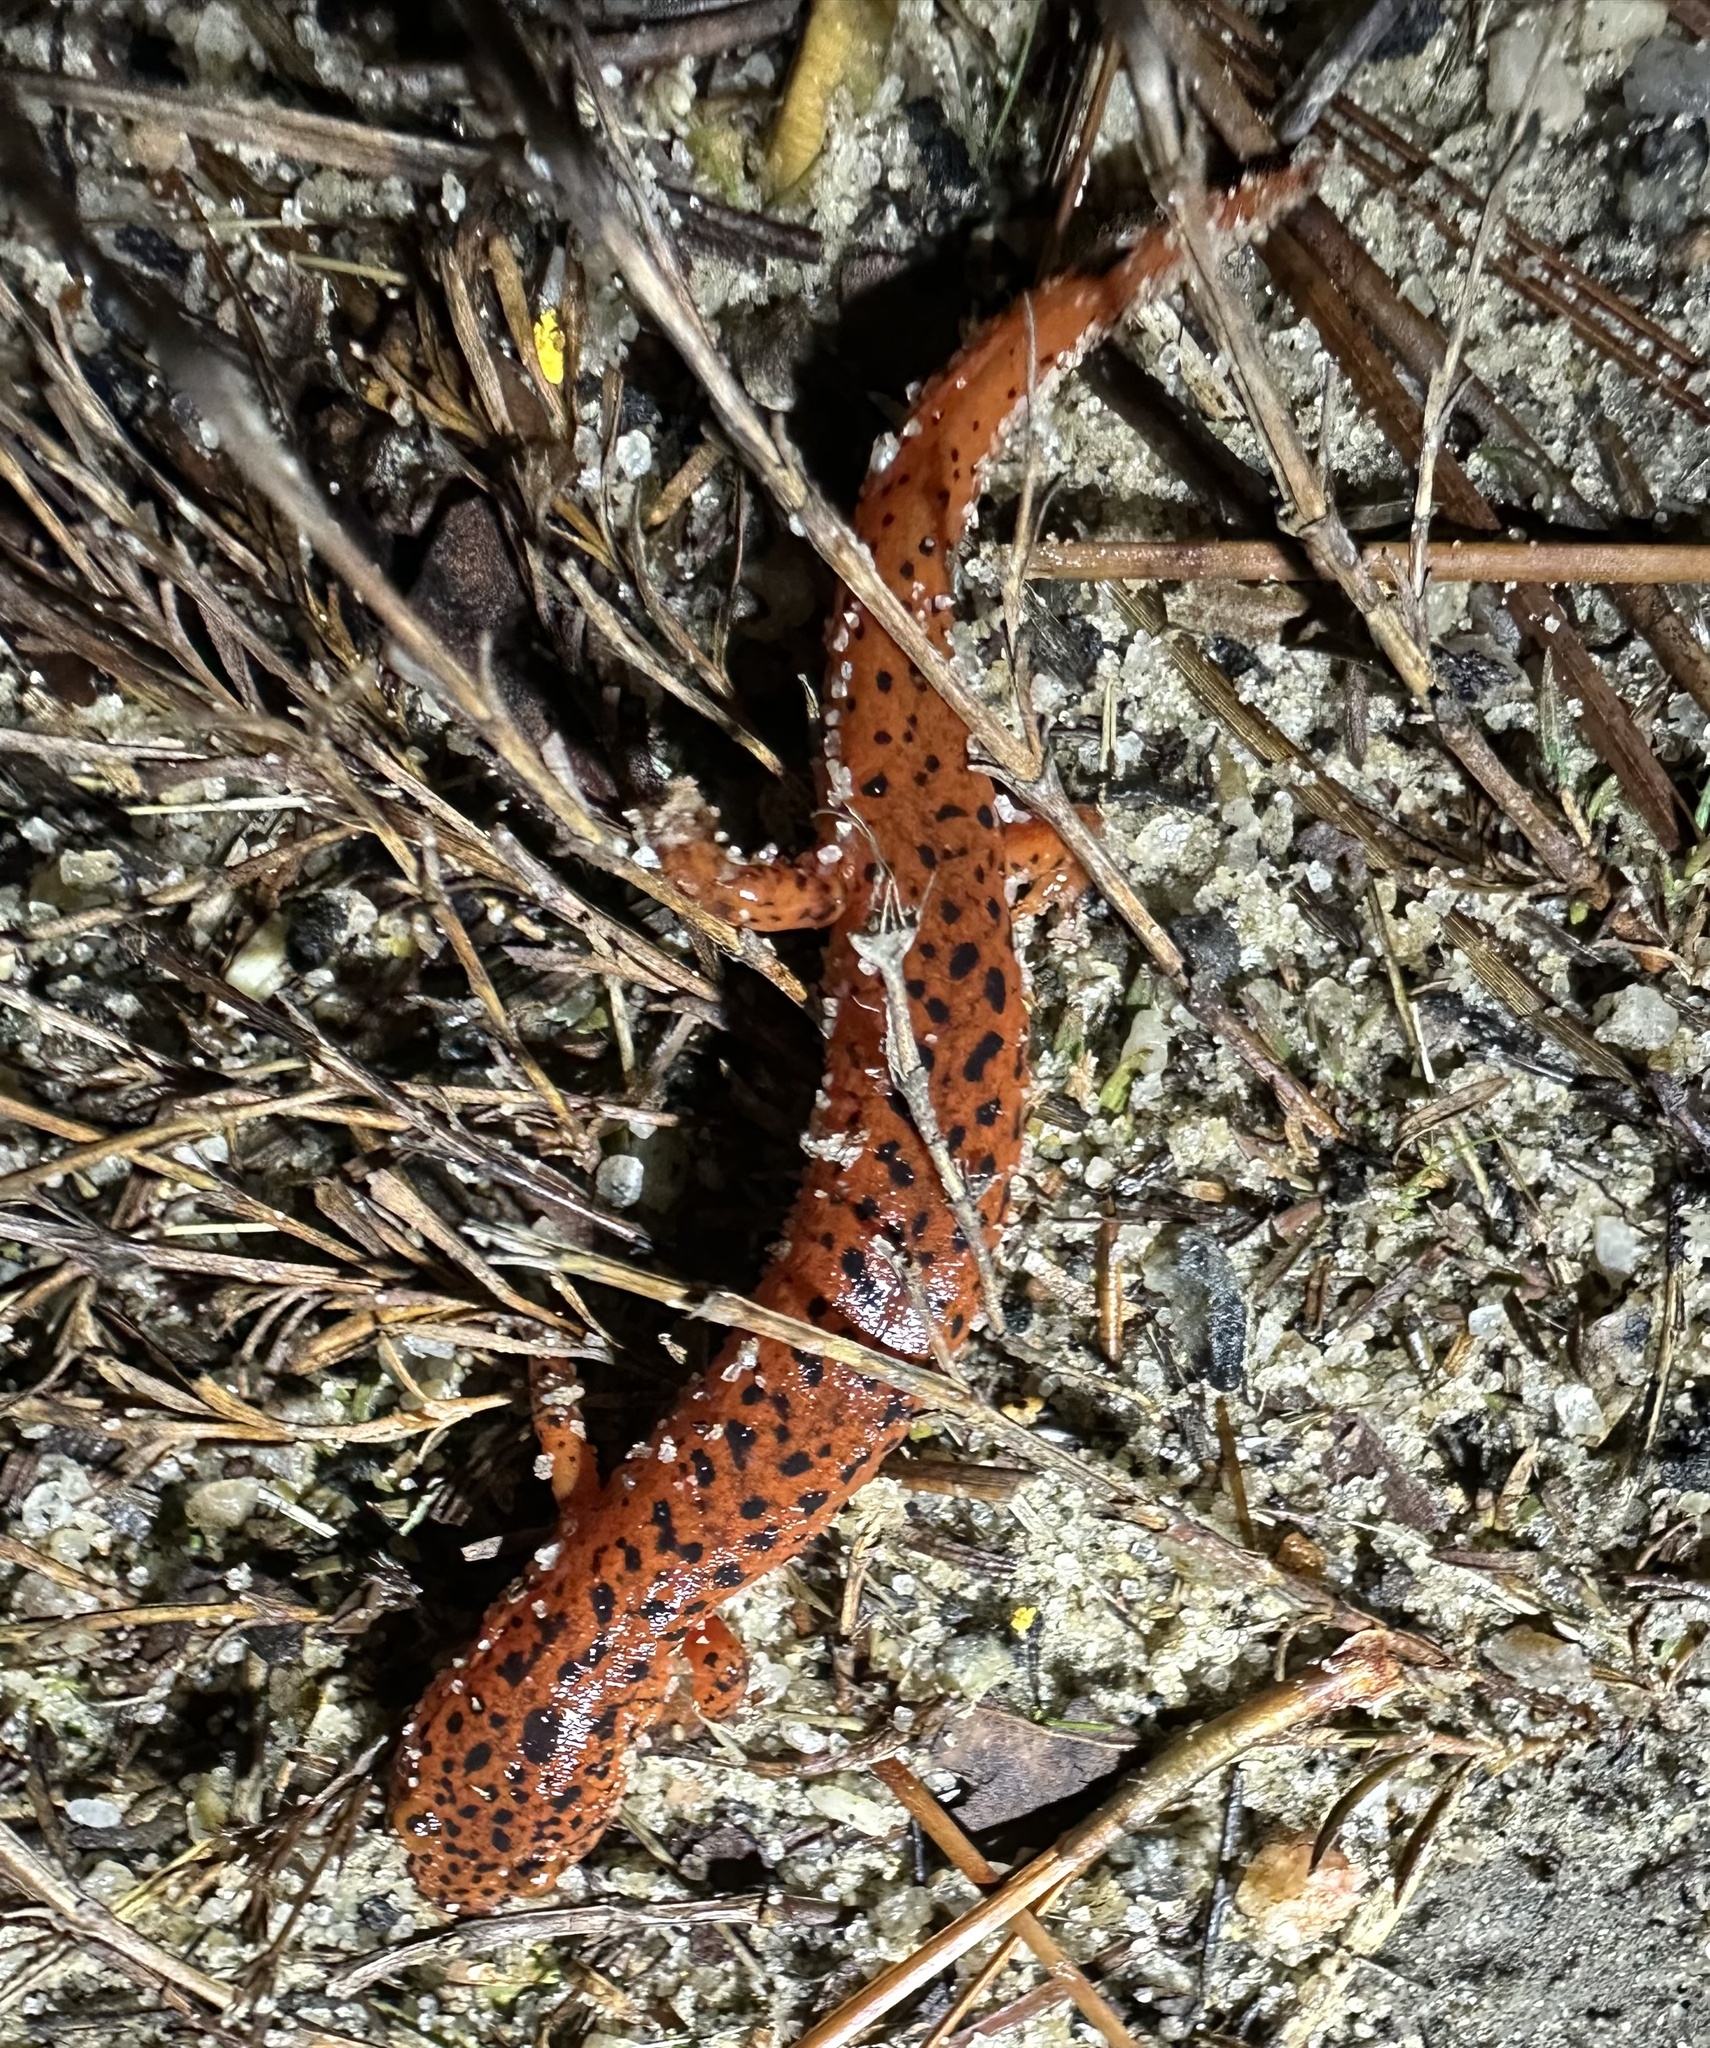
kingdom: Animalia
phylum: Chordata
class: Amphibia
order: Caudata
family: Plethodontidae
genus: Pseudotriton
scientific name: Pseudotriton ruber
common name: Red salamander
